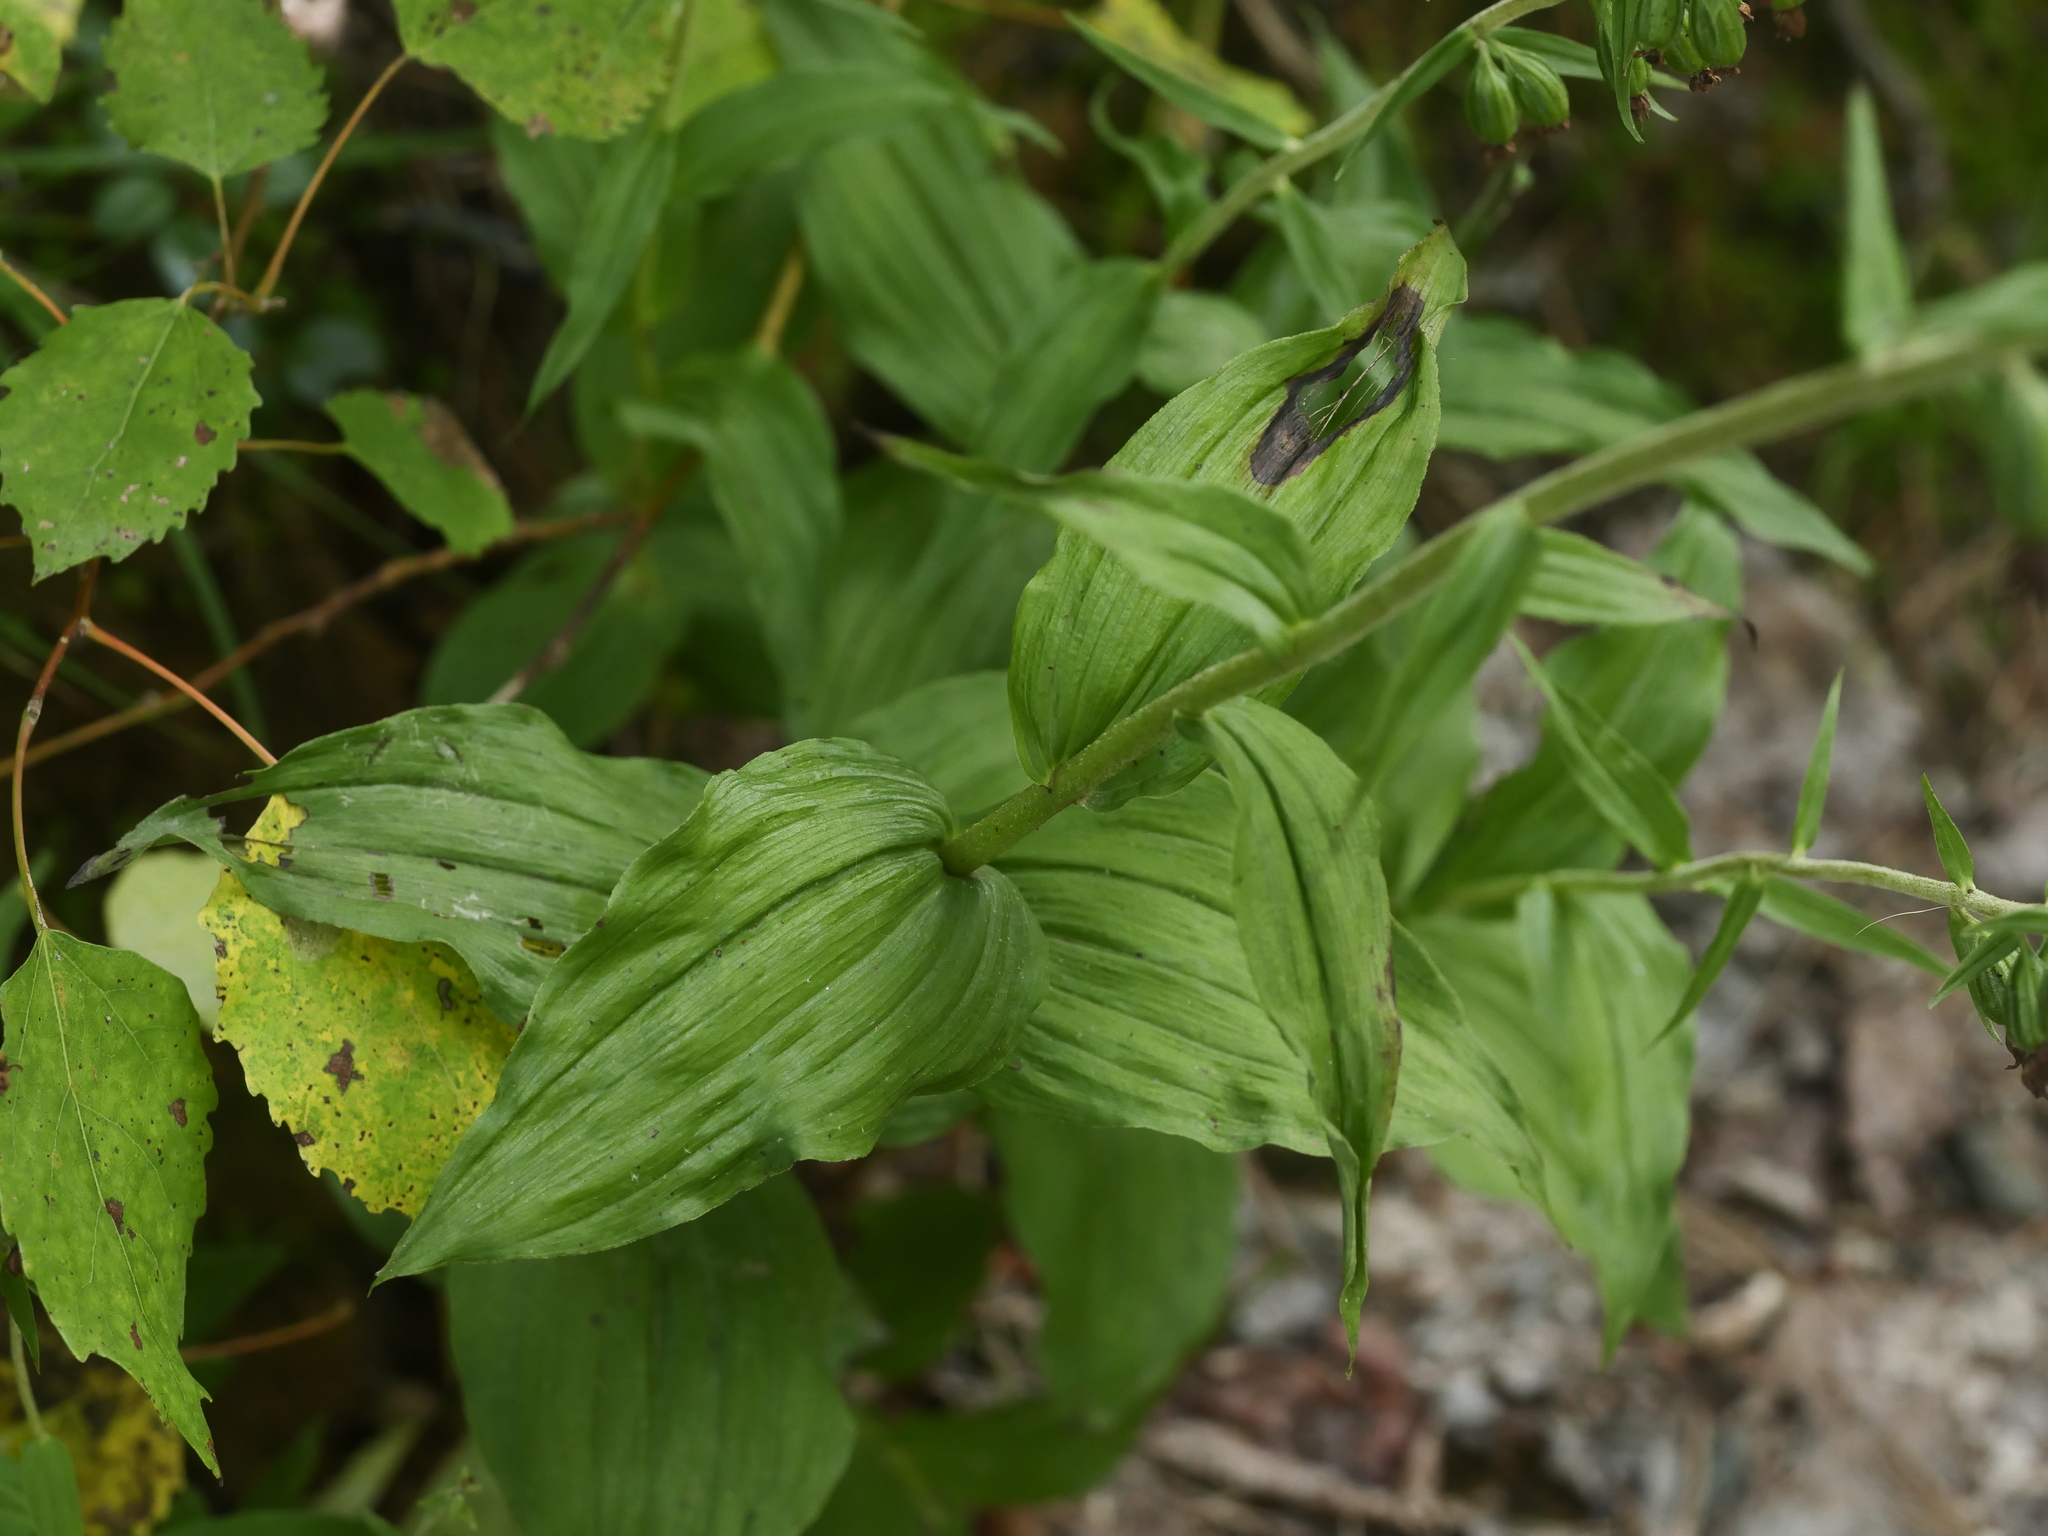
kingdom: Plantae
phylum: Tracheophyta
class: Liliopsida
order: Asparagales
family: Orchidaceae
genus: Epipactis
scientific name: Epipactis helleborine
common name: Broad-leaved helleborine
